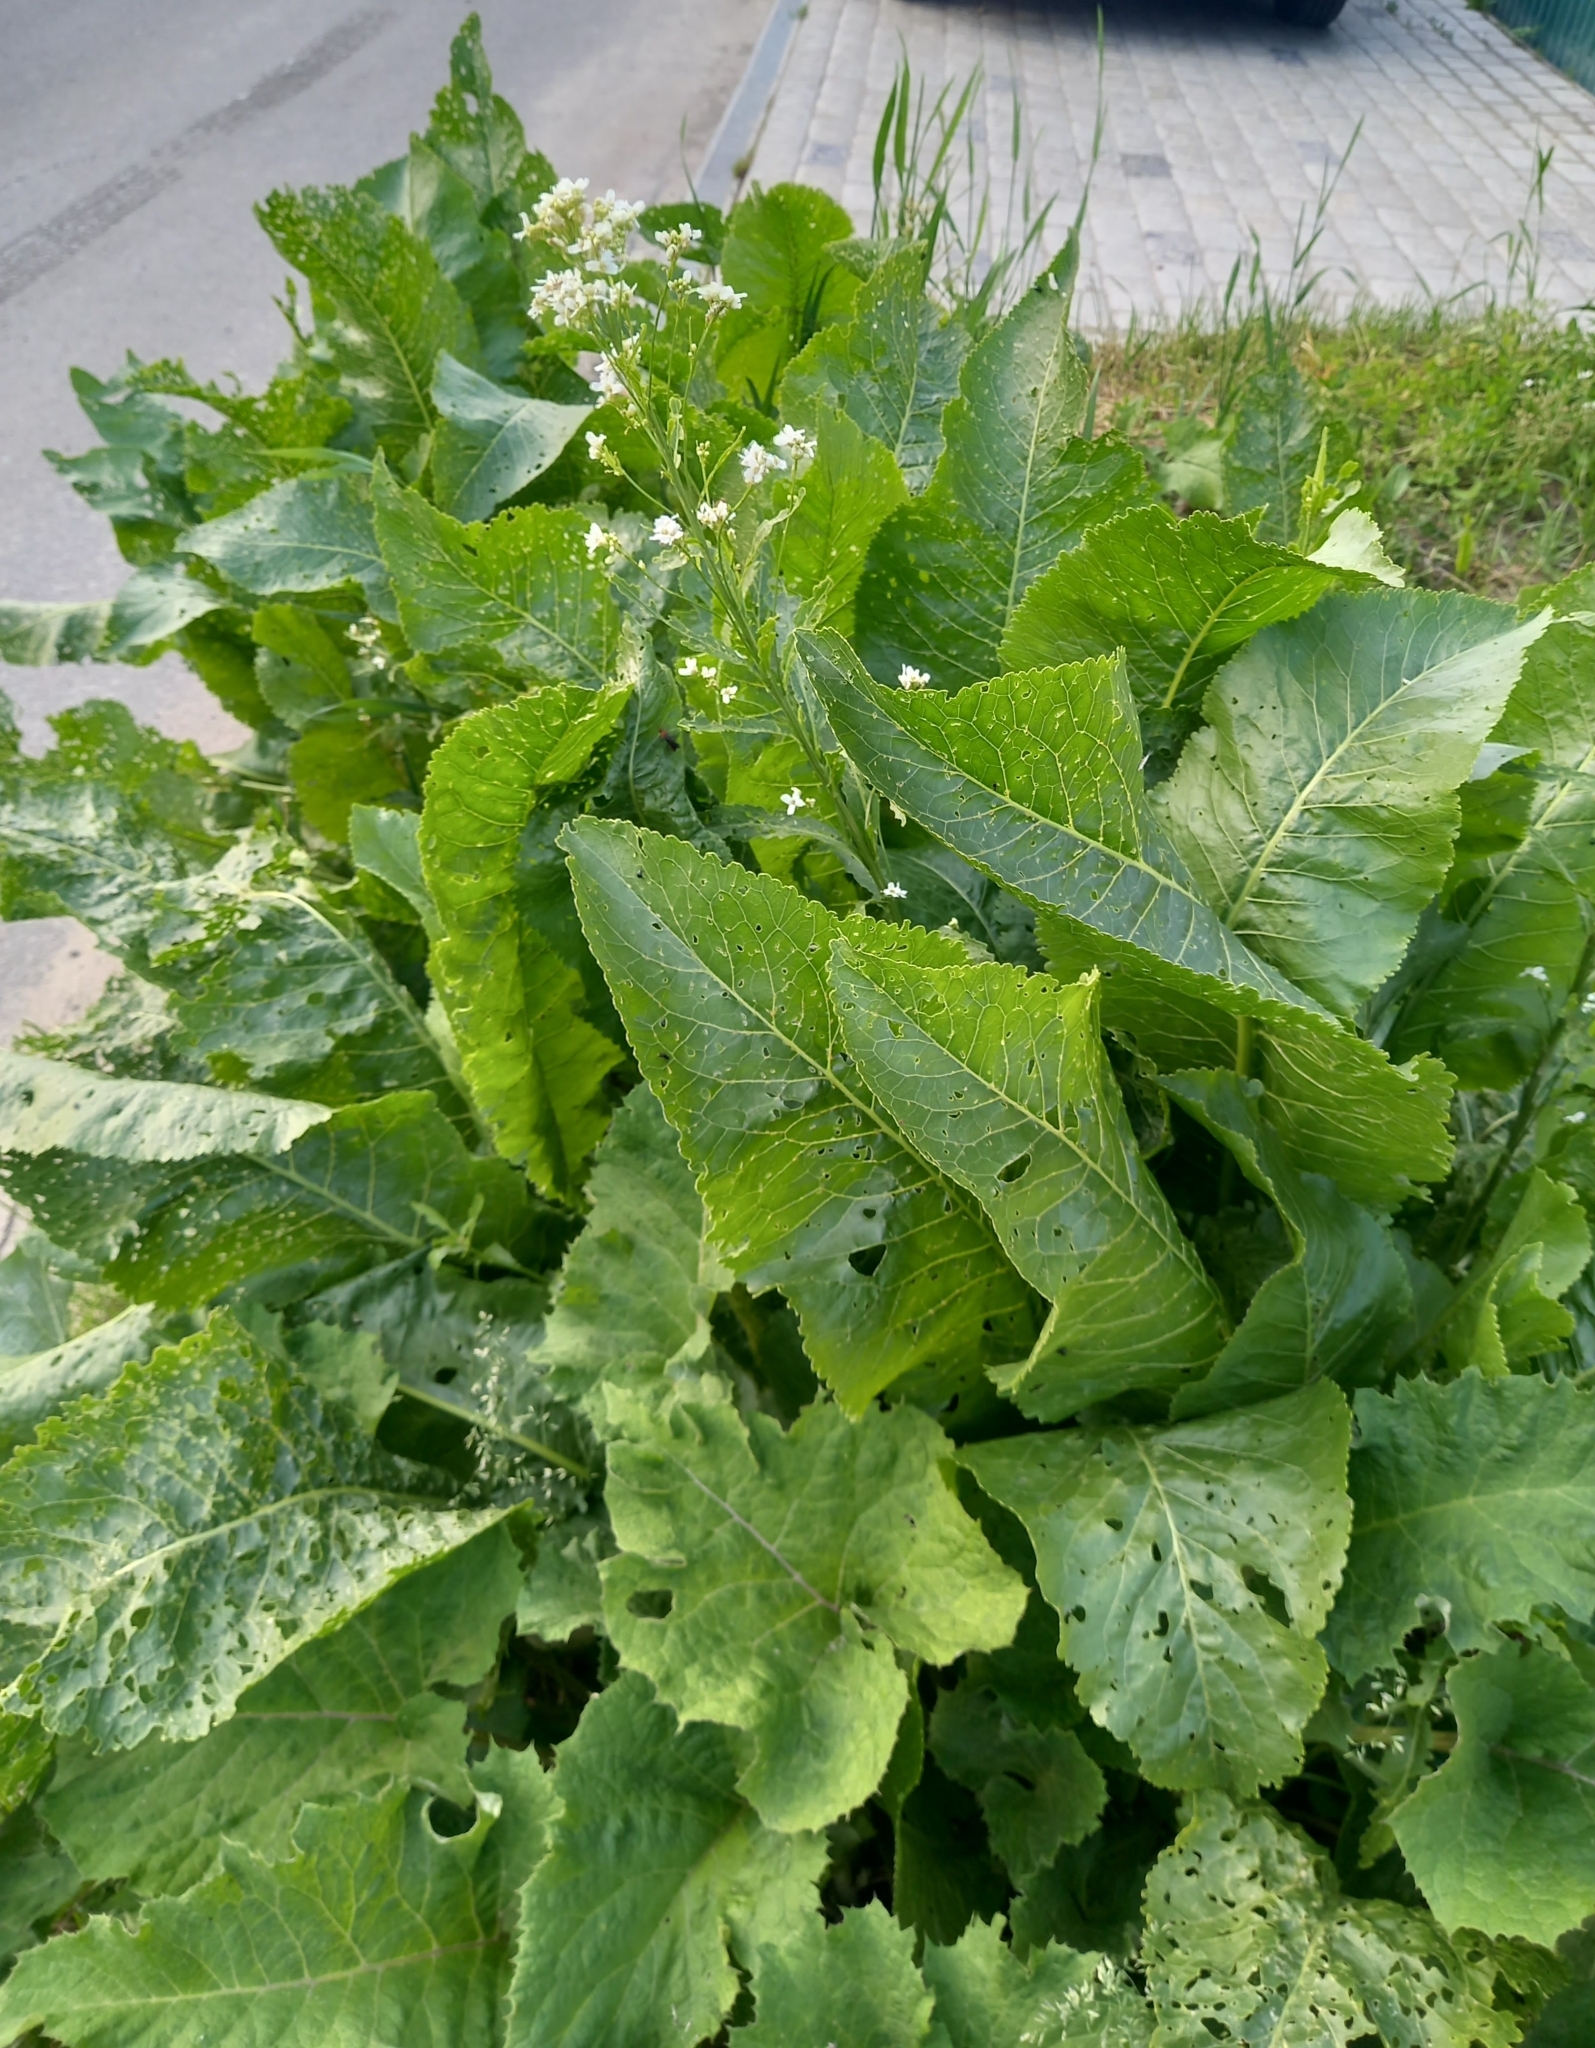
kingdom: Plantae
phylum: Tracheophyta
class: Magnoliopsida
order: Brassicales
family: Brassicaceae
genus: Armoracia
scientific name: Armoracia rusticana
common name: Horseradish
